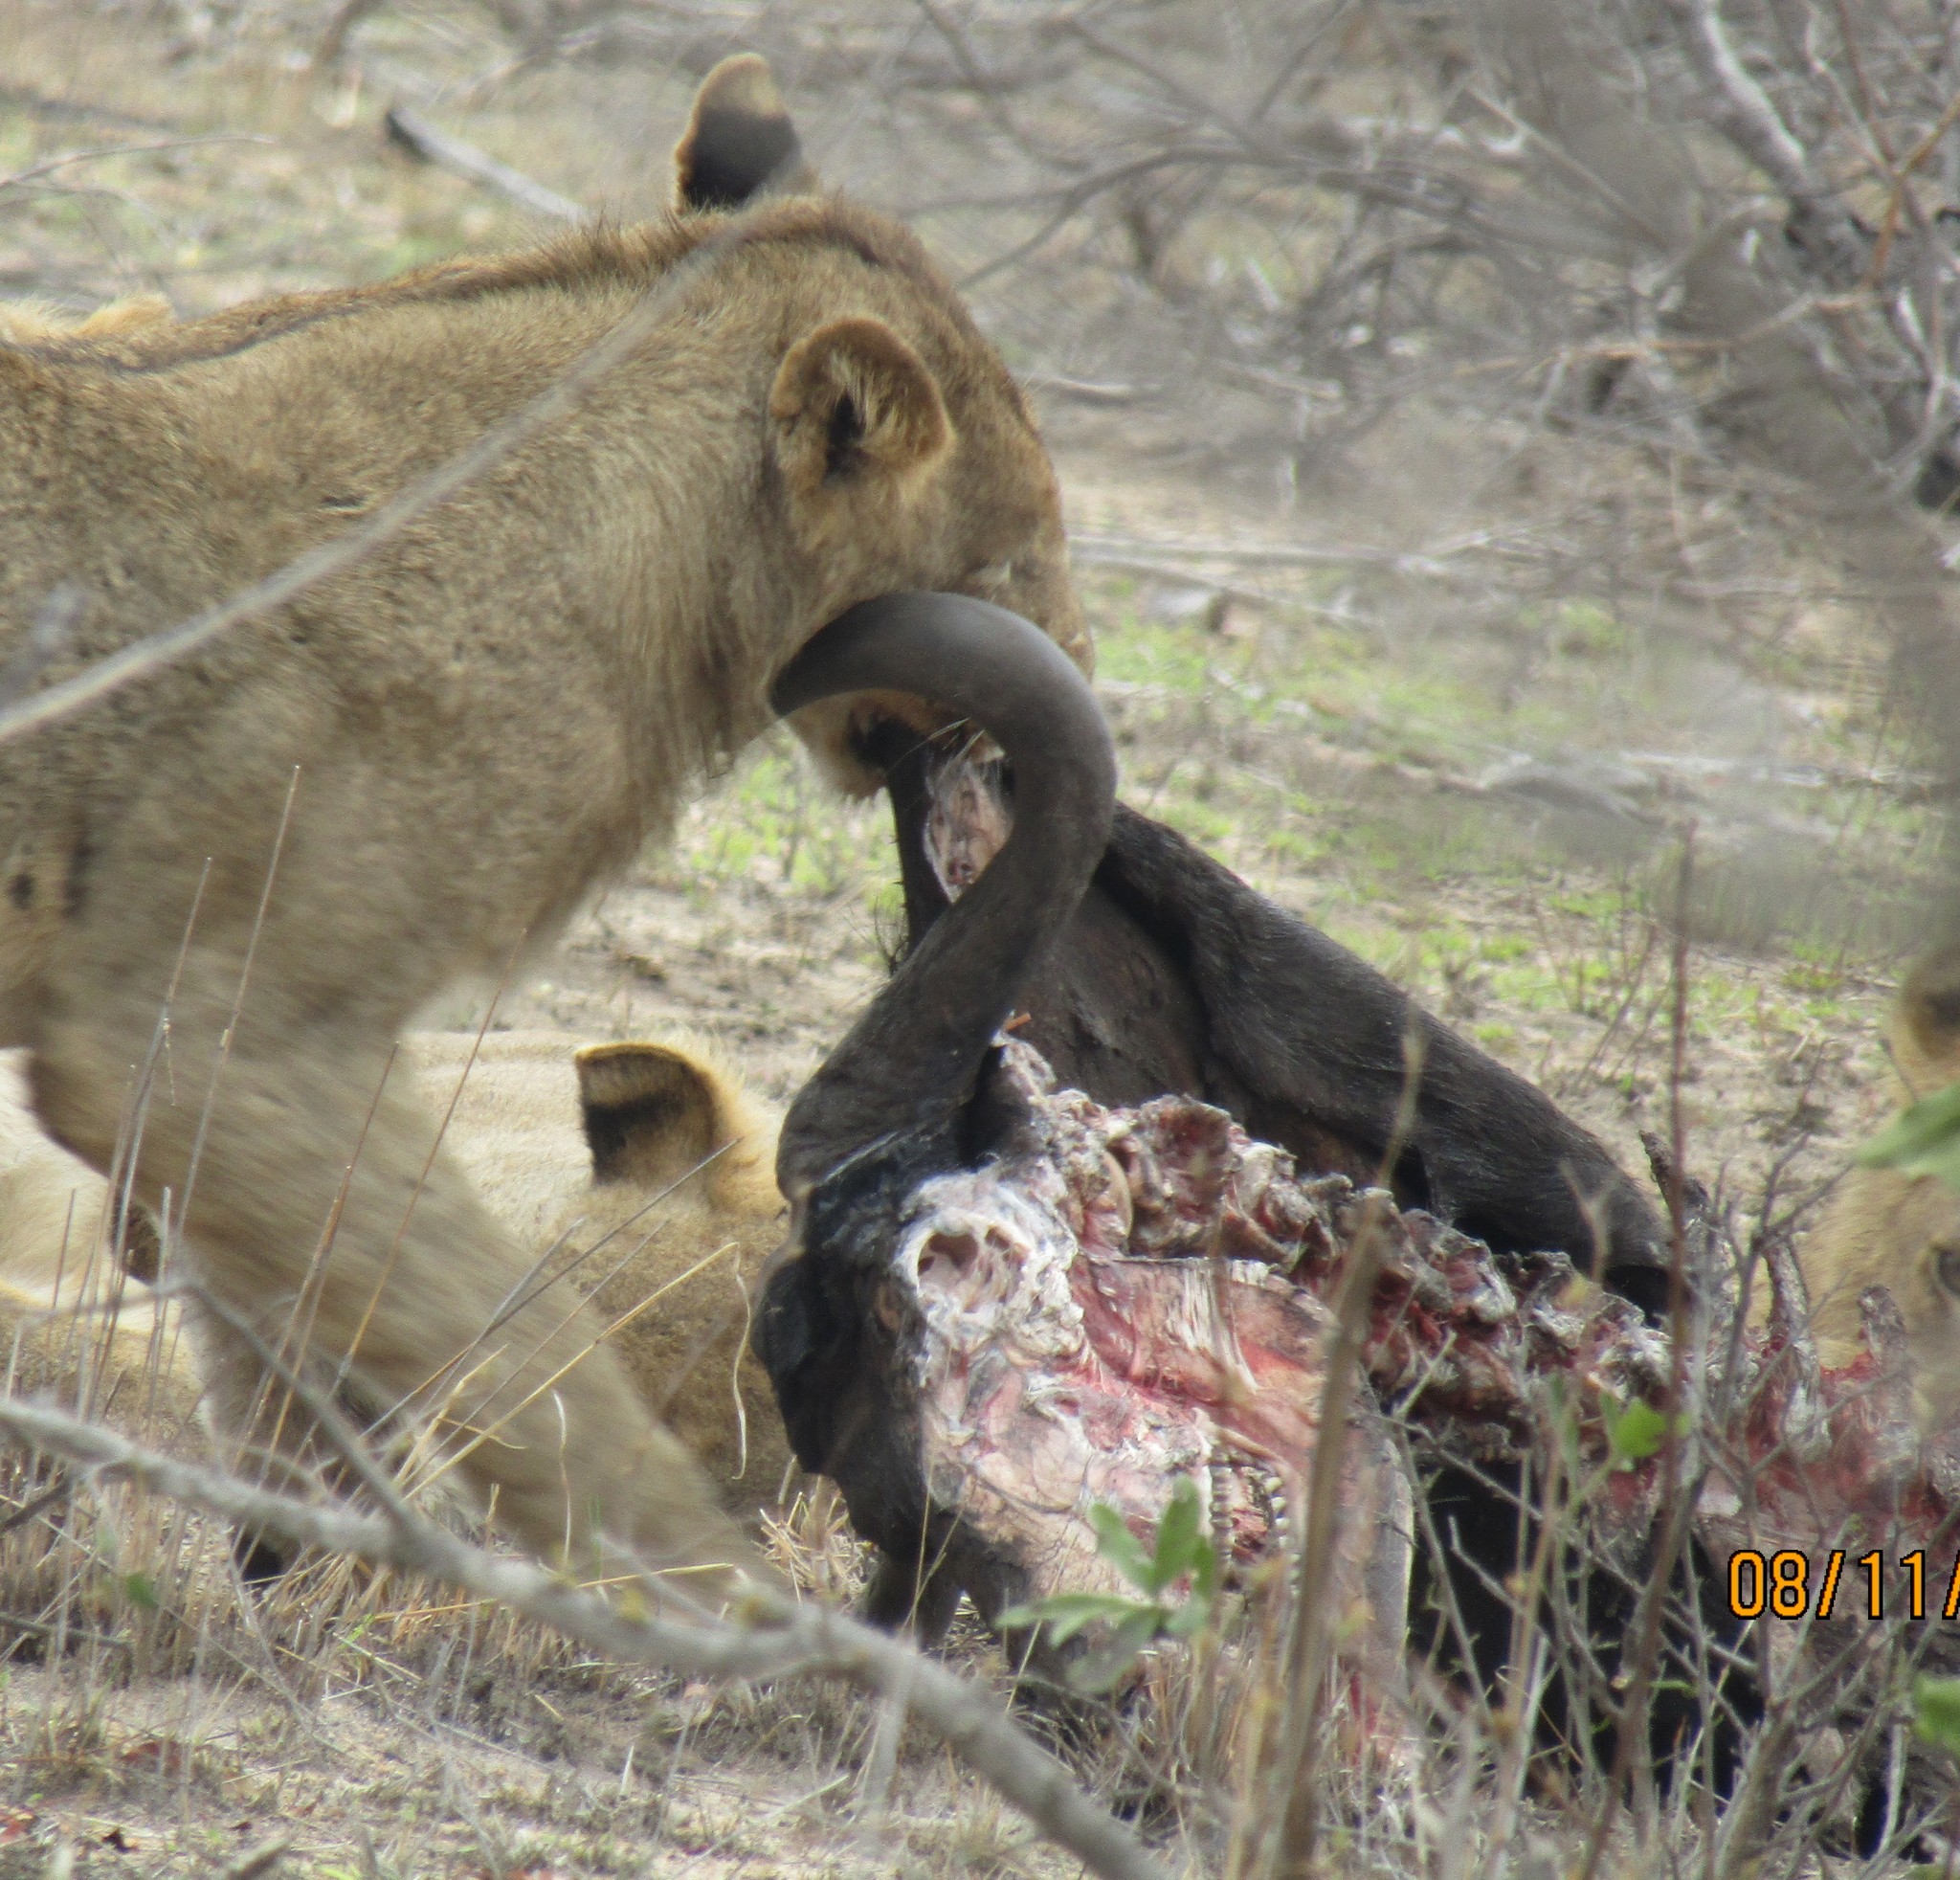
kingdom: Animalia
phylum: Chordata
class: Mammalia
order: Carnivora
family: Felidae
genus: Panthera
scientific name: Panthera leo
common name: Lion
